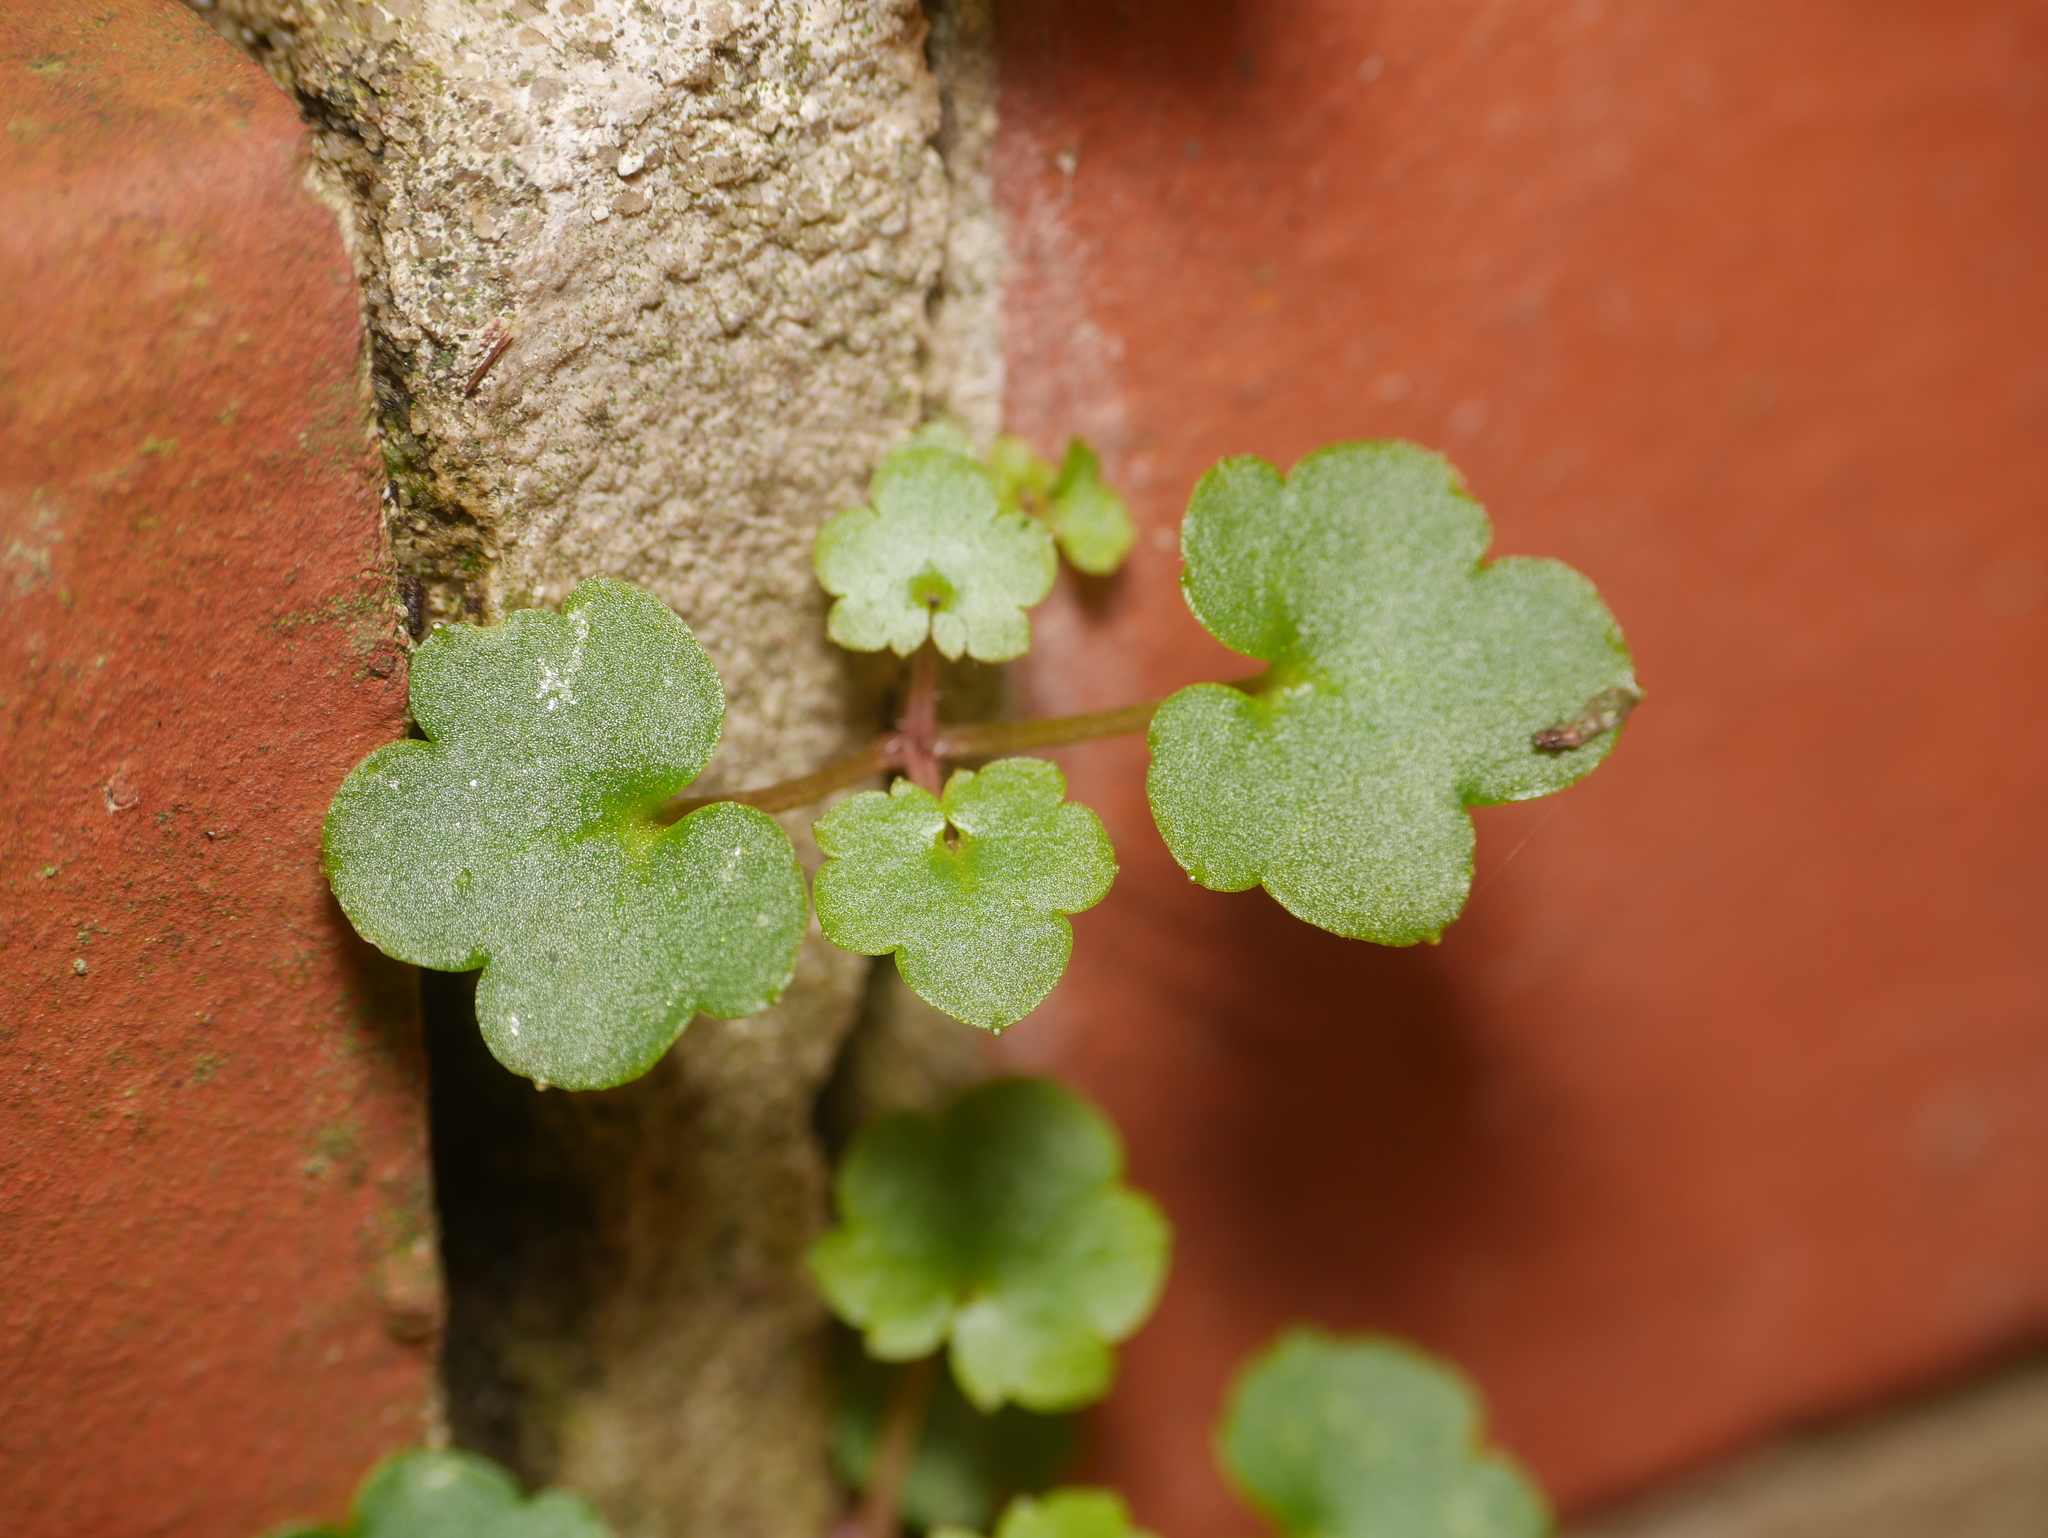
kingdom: Plantae
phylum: Tracheophyta
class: Magnoliopsida
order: Lamiales
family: Plantaginaceae
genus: Cymbalaria
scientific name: Cymbalaria muralis
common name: Ivy-leaved toadflax
